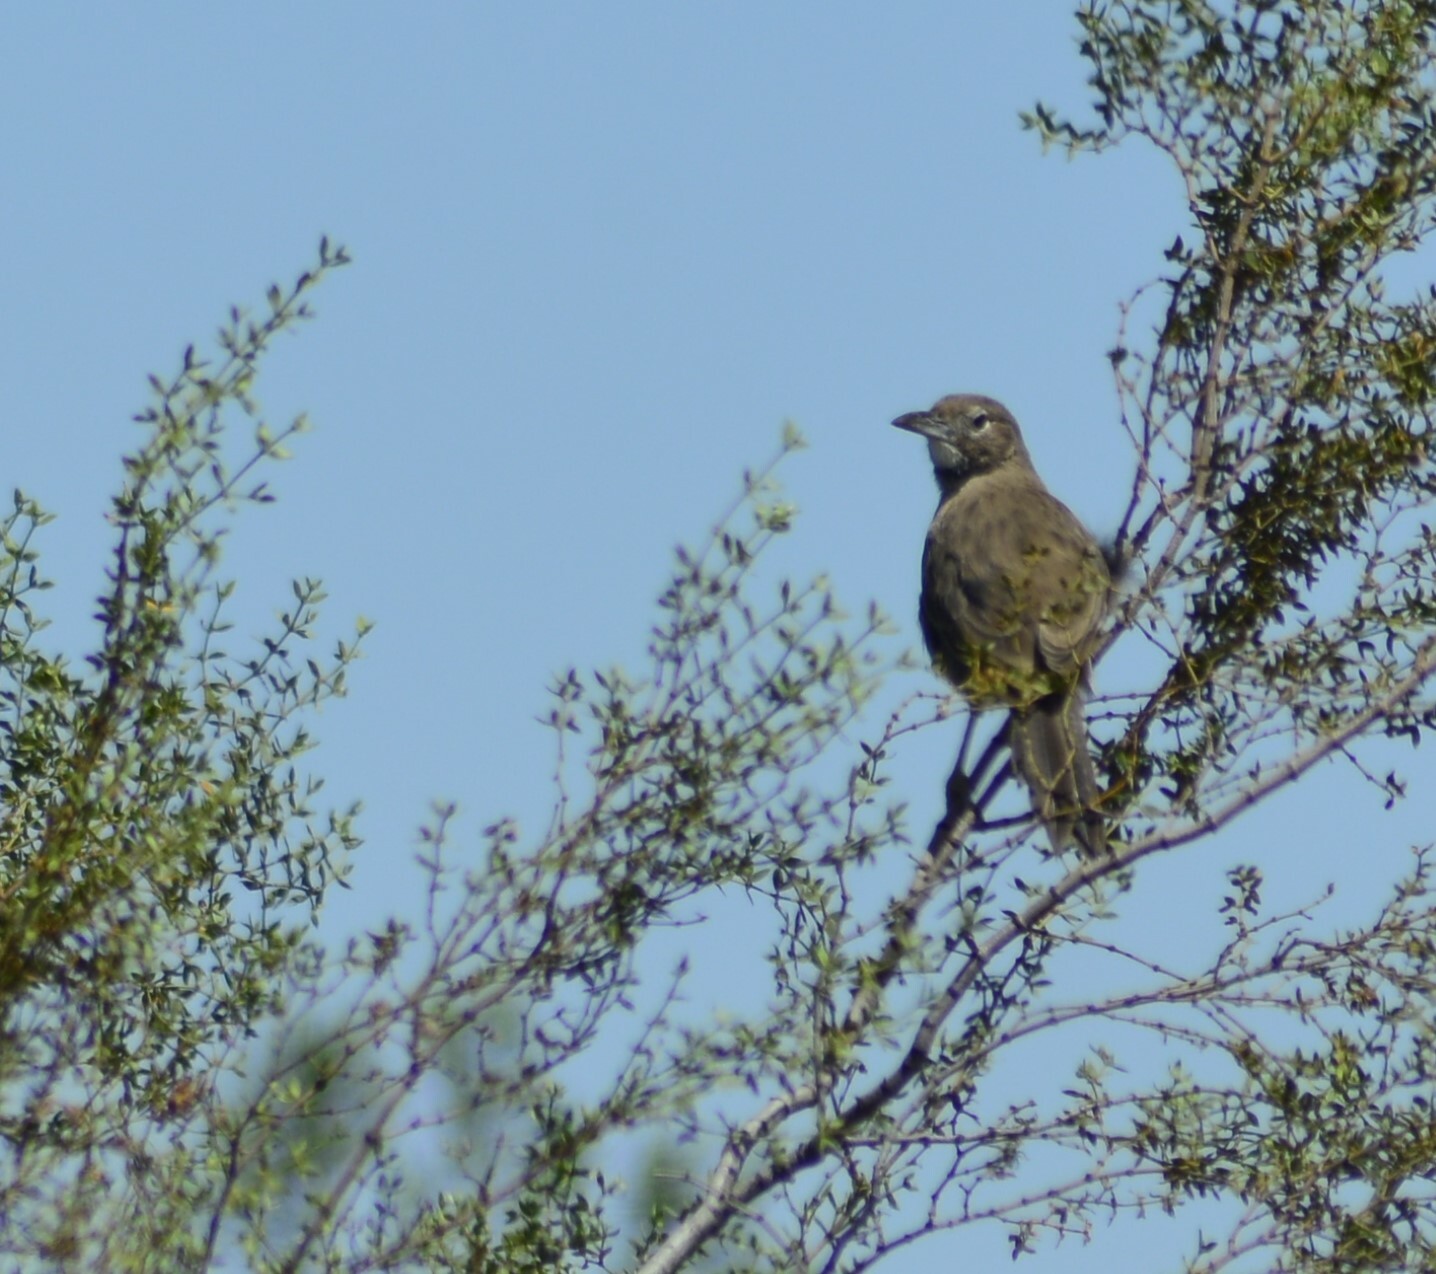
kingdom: Animalia
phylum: Chordata
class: Aves
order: Passeriformes
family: Furnariidae
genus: Pseudoseisura
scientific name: Pseudoseisura gutturalis
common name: White-throated cacholote
